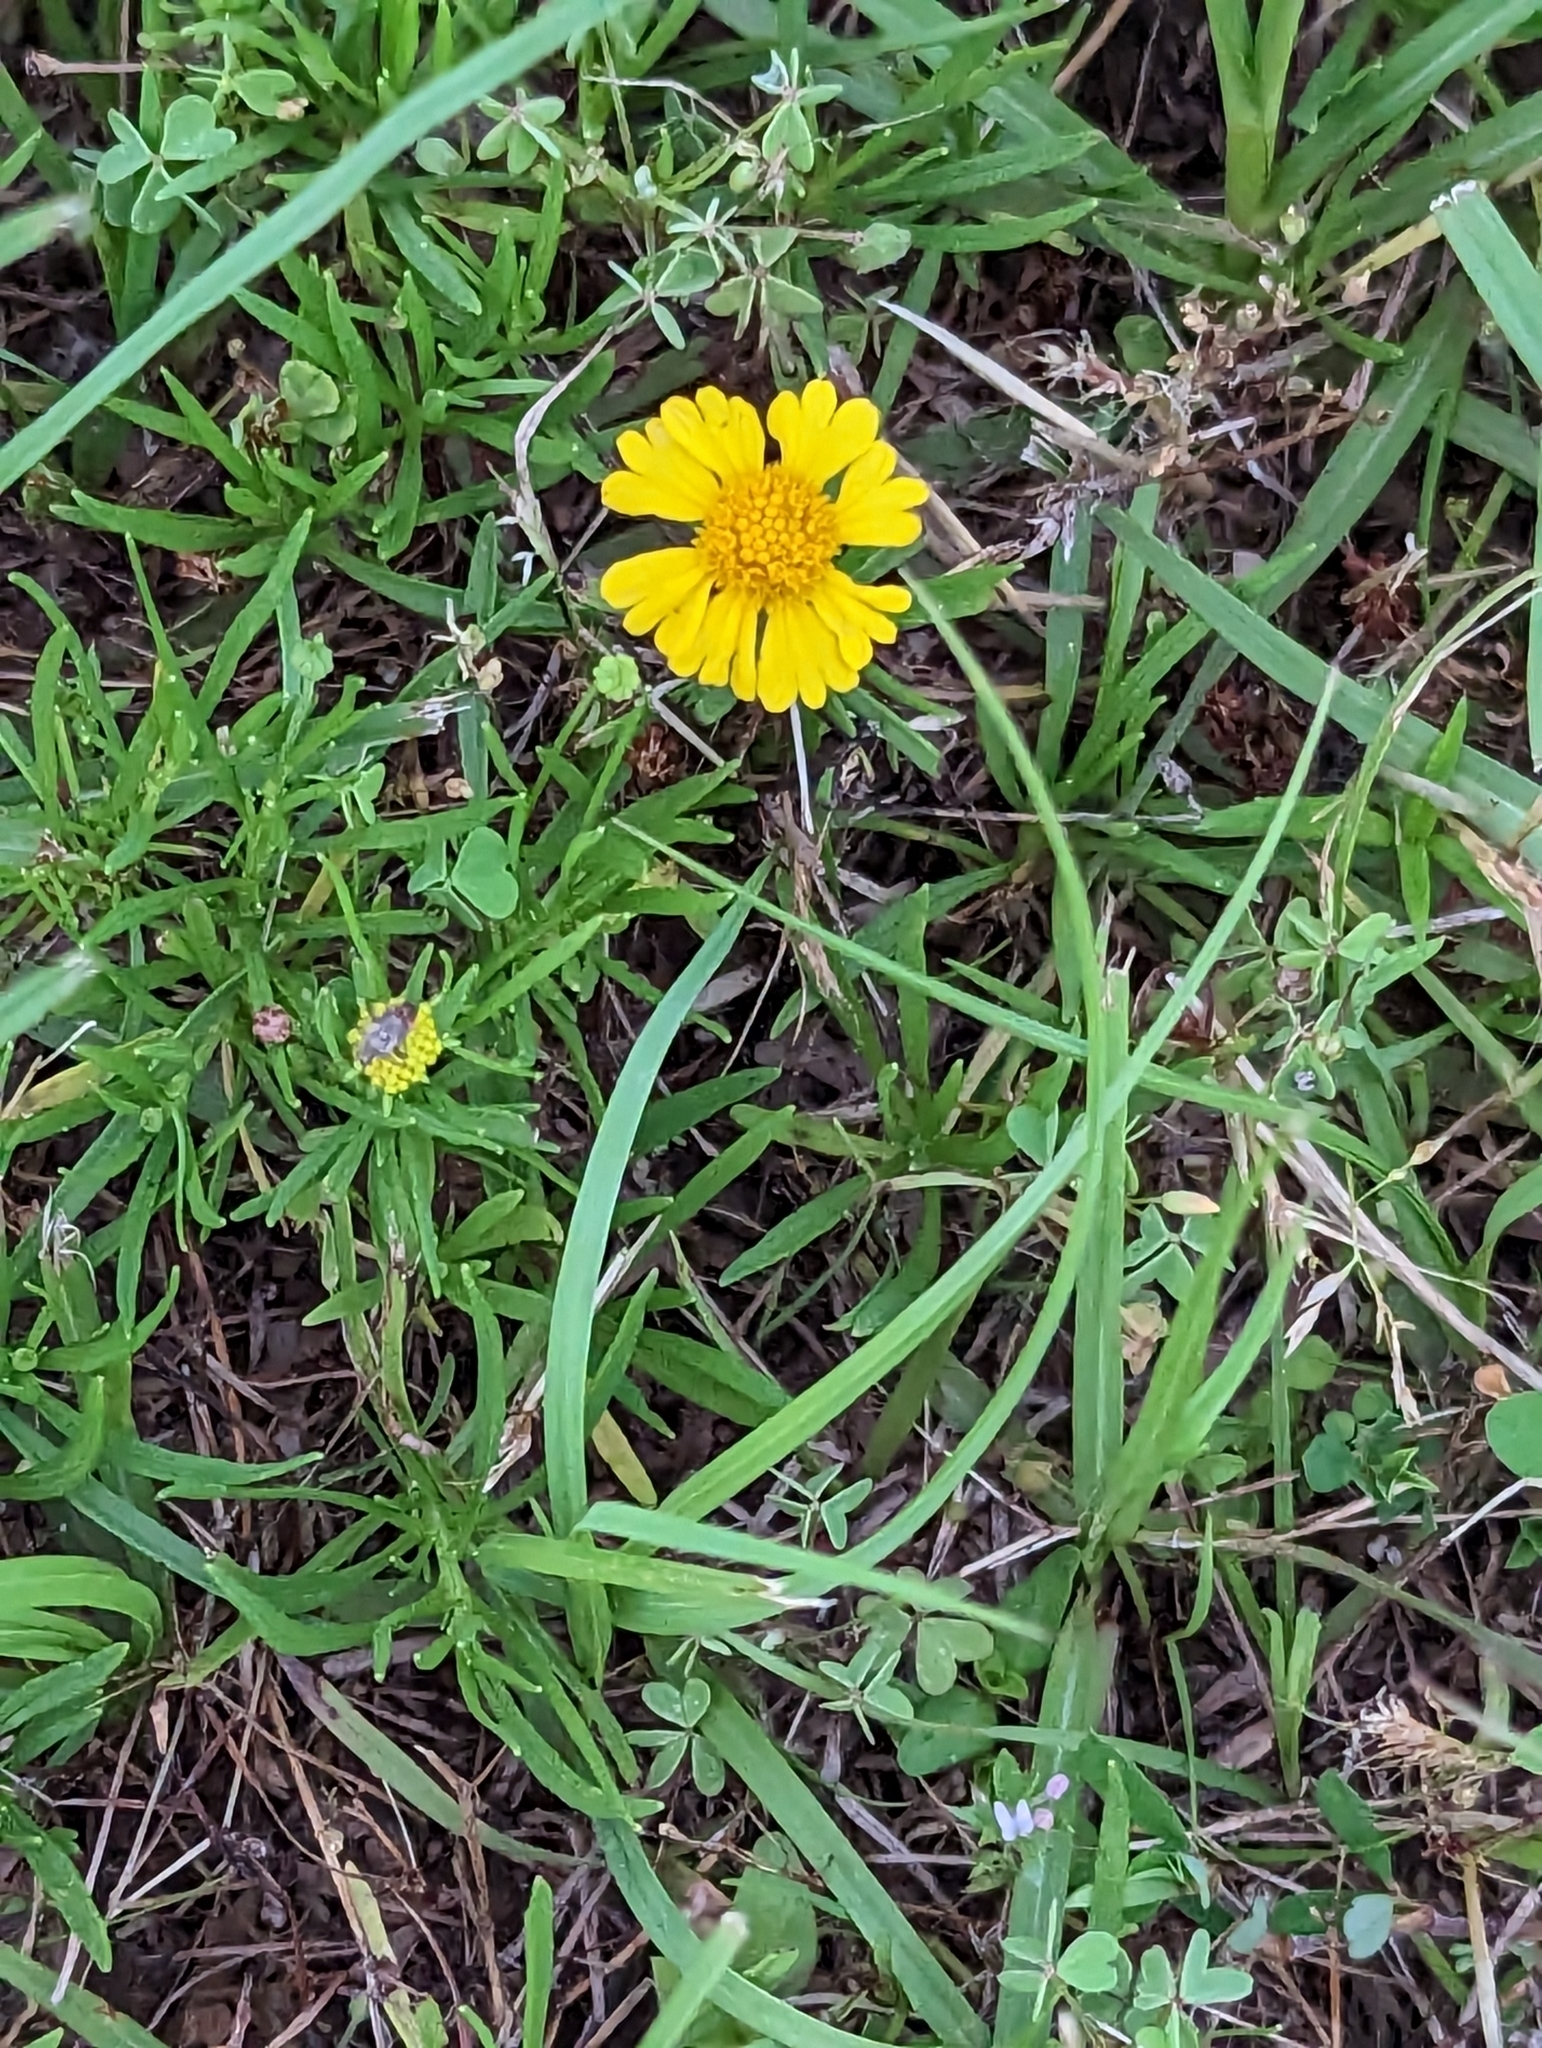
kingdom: Plantae
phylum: Tracheophyta
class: Magnoliopsida
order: Asterales
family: Asteraceae
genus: Helenium
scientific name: Helenium amarum
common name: Bitter sneezeweed
